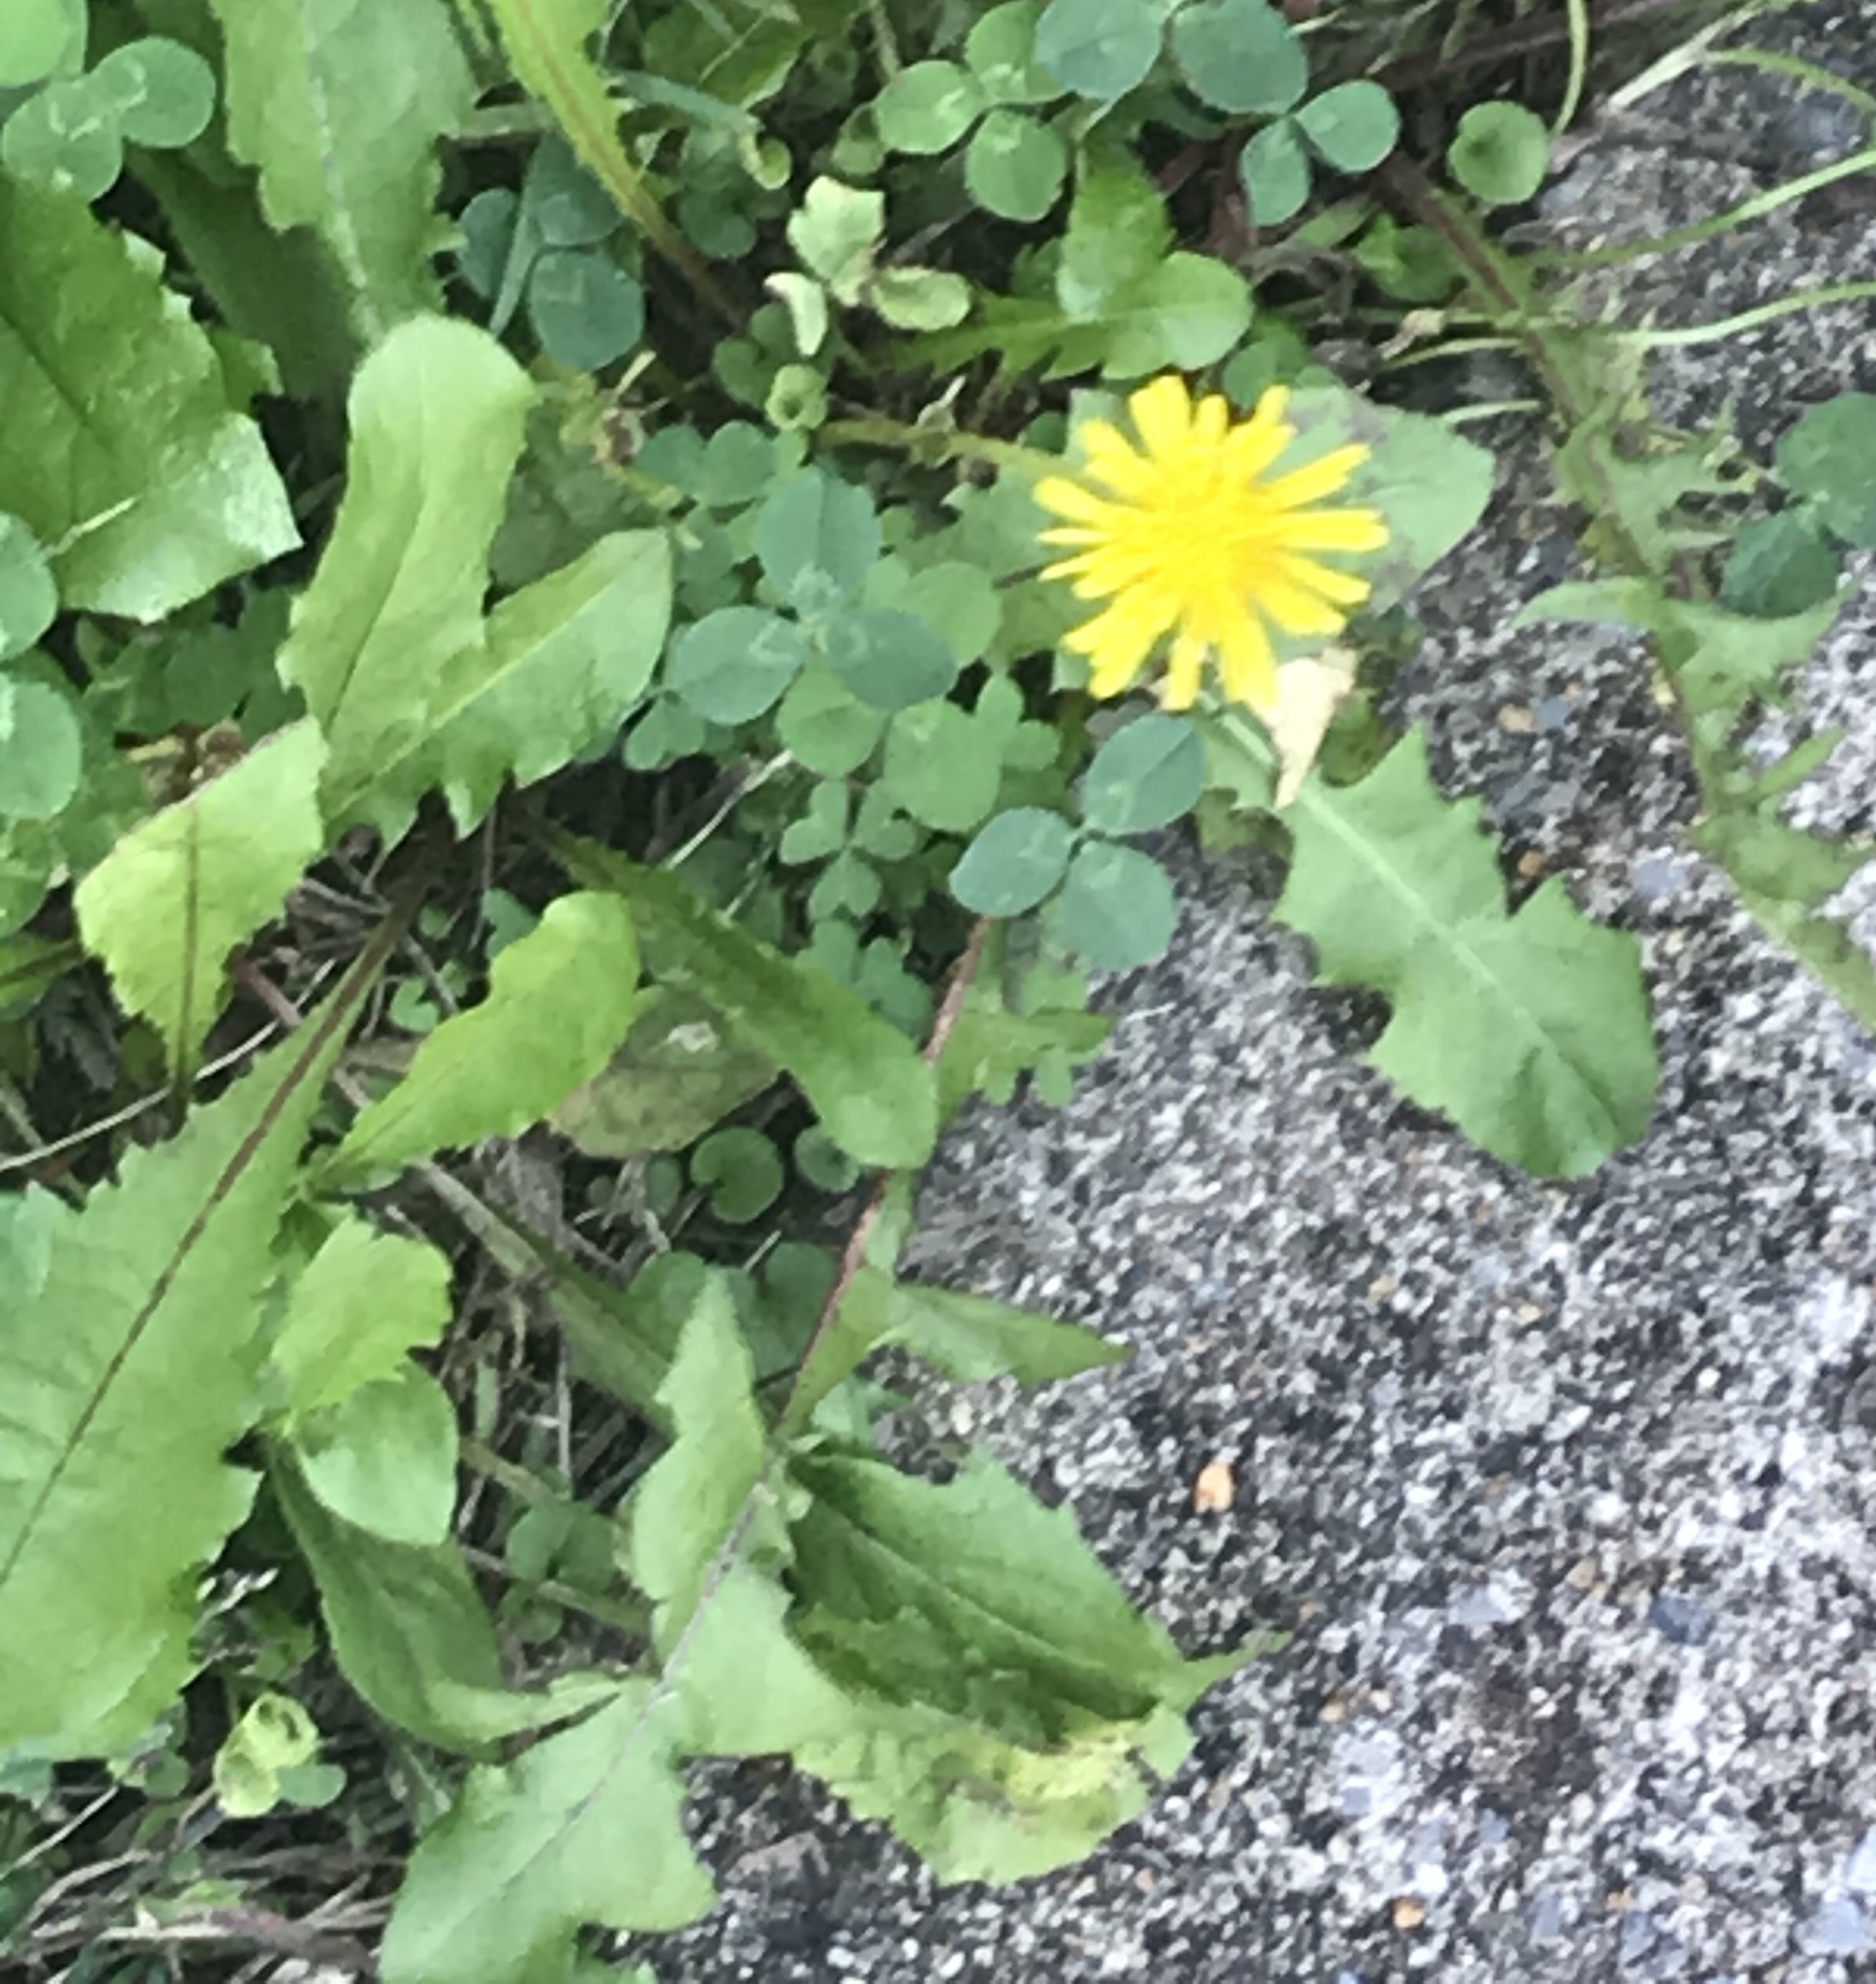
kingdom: Plantae
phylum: Tracheophyta
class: Magnoliopsida
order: Asterales
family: Asteraceae
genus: Taraxacum
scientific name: Taraxacum
